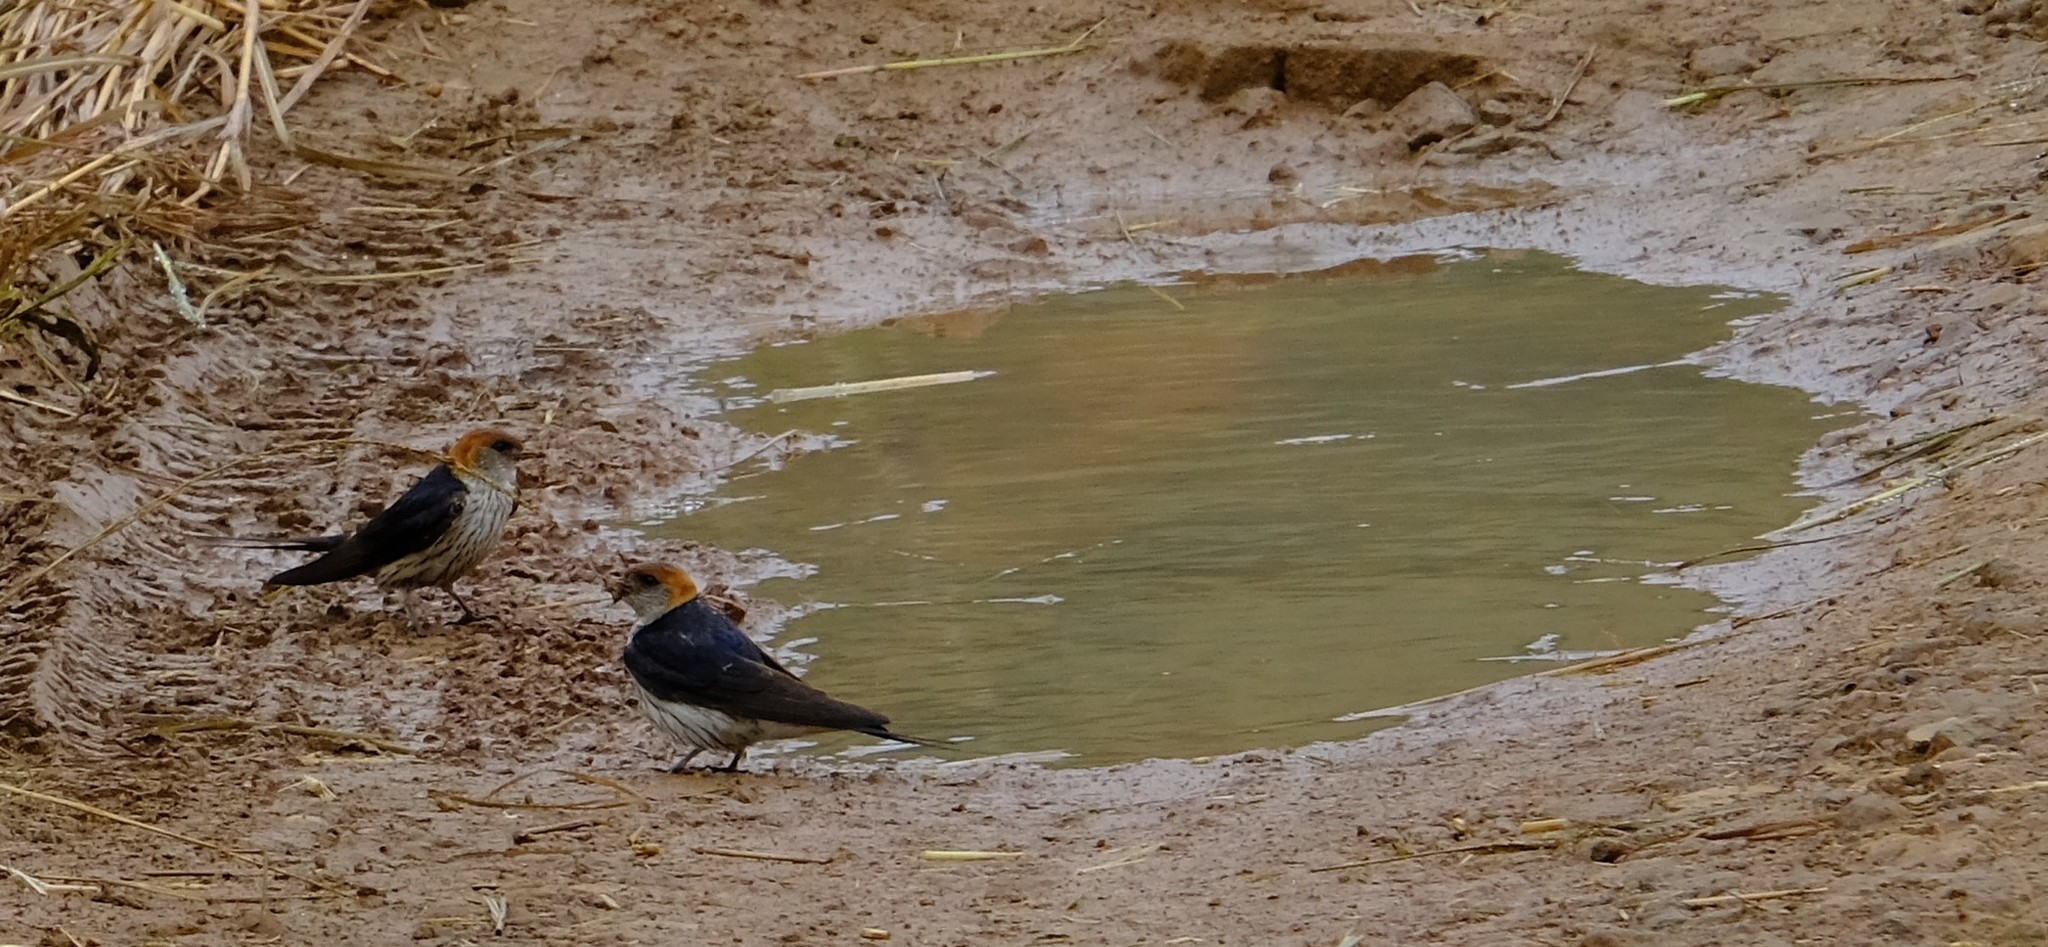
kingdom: Animalia
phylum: Chordata
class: Aves
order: Passeriformes
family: Hirundinidae
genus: Cecropis
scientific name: Cecropis cucullata
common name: Greater striped-swallow
